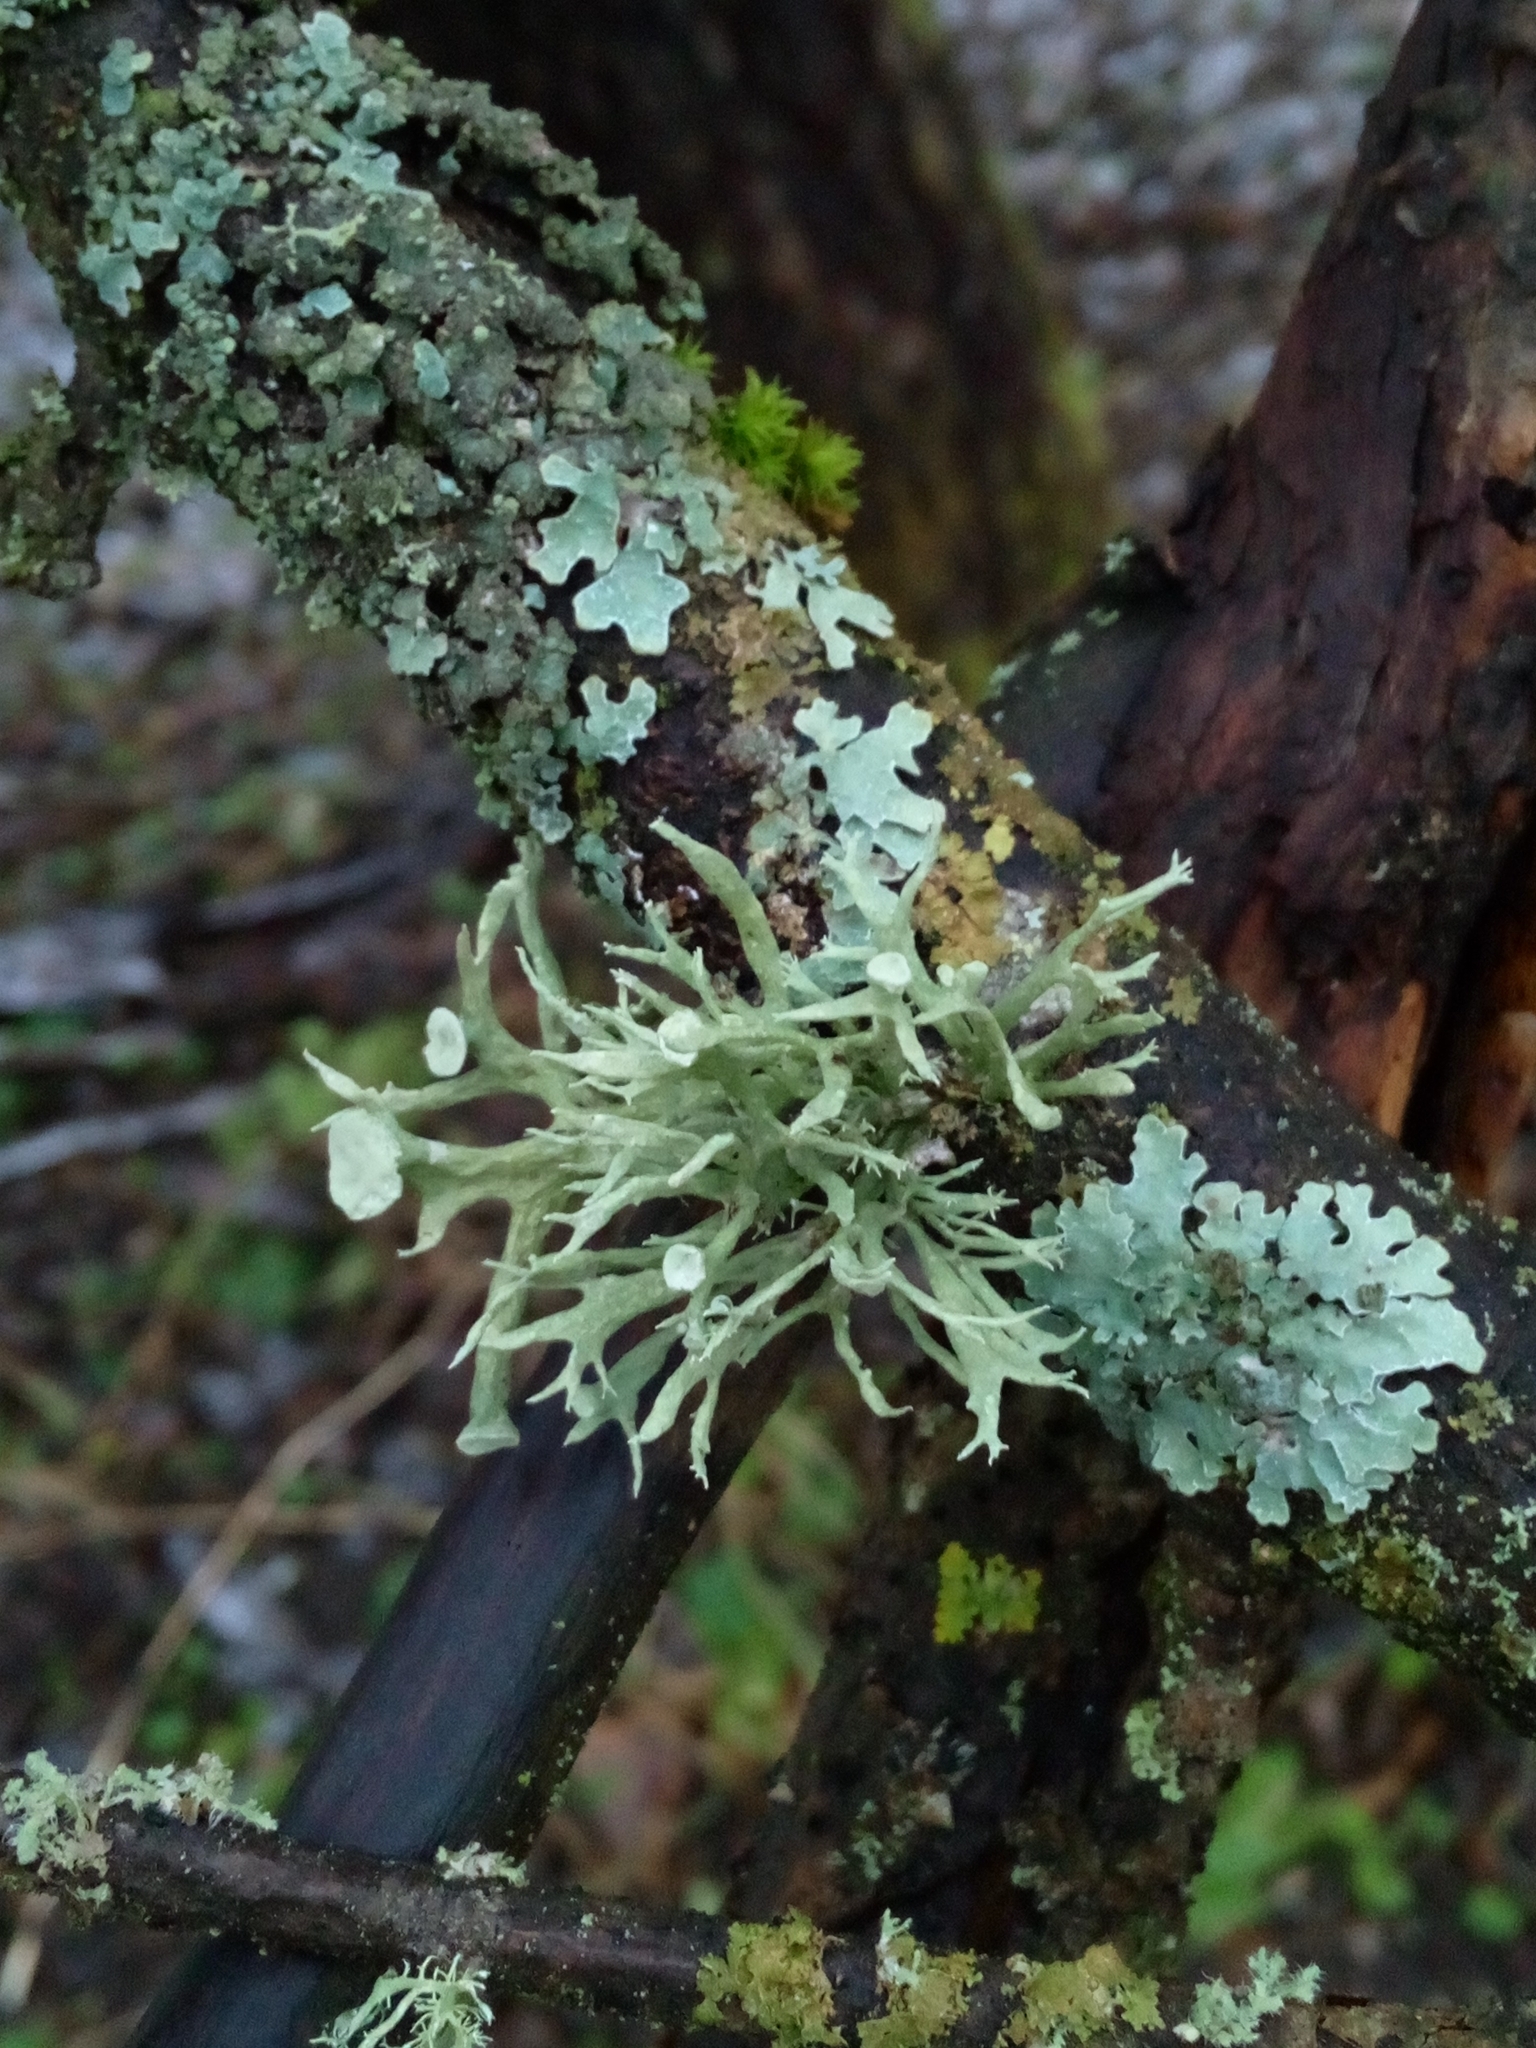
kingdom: Fungi
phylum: Ascomycota
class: Lecanoromycetes
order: Lecanorales
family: Ramalinaceae
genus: Ramalina
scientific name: Ramalina fastigiata
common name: Dotted ribbon lichen
